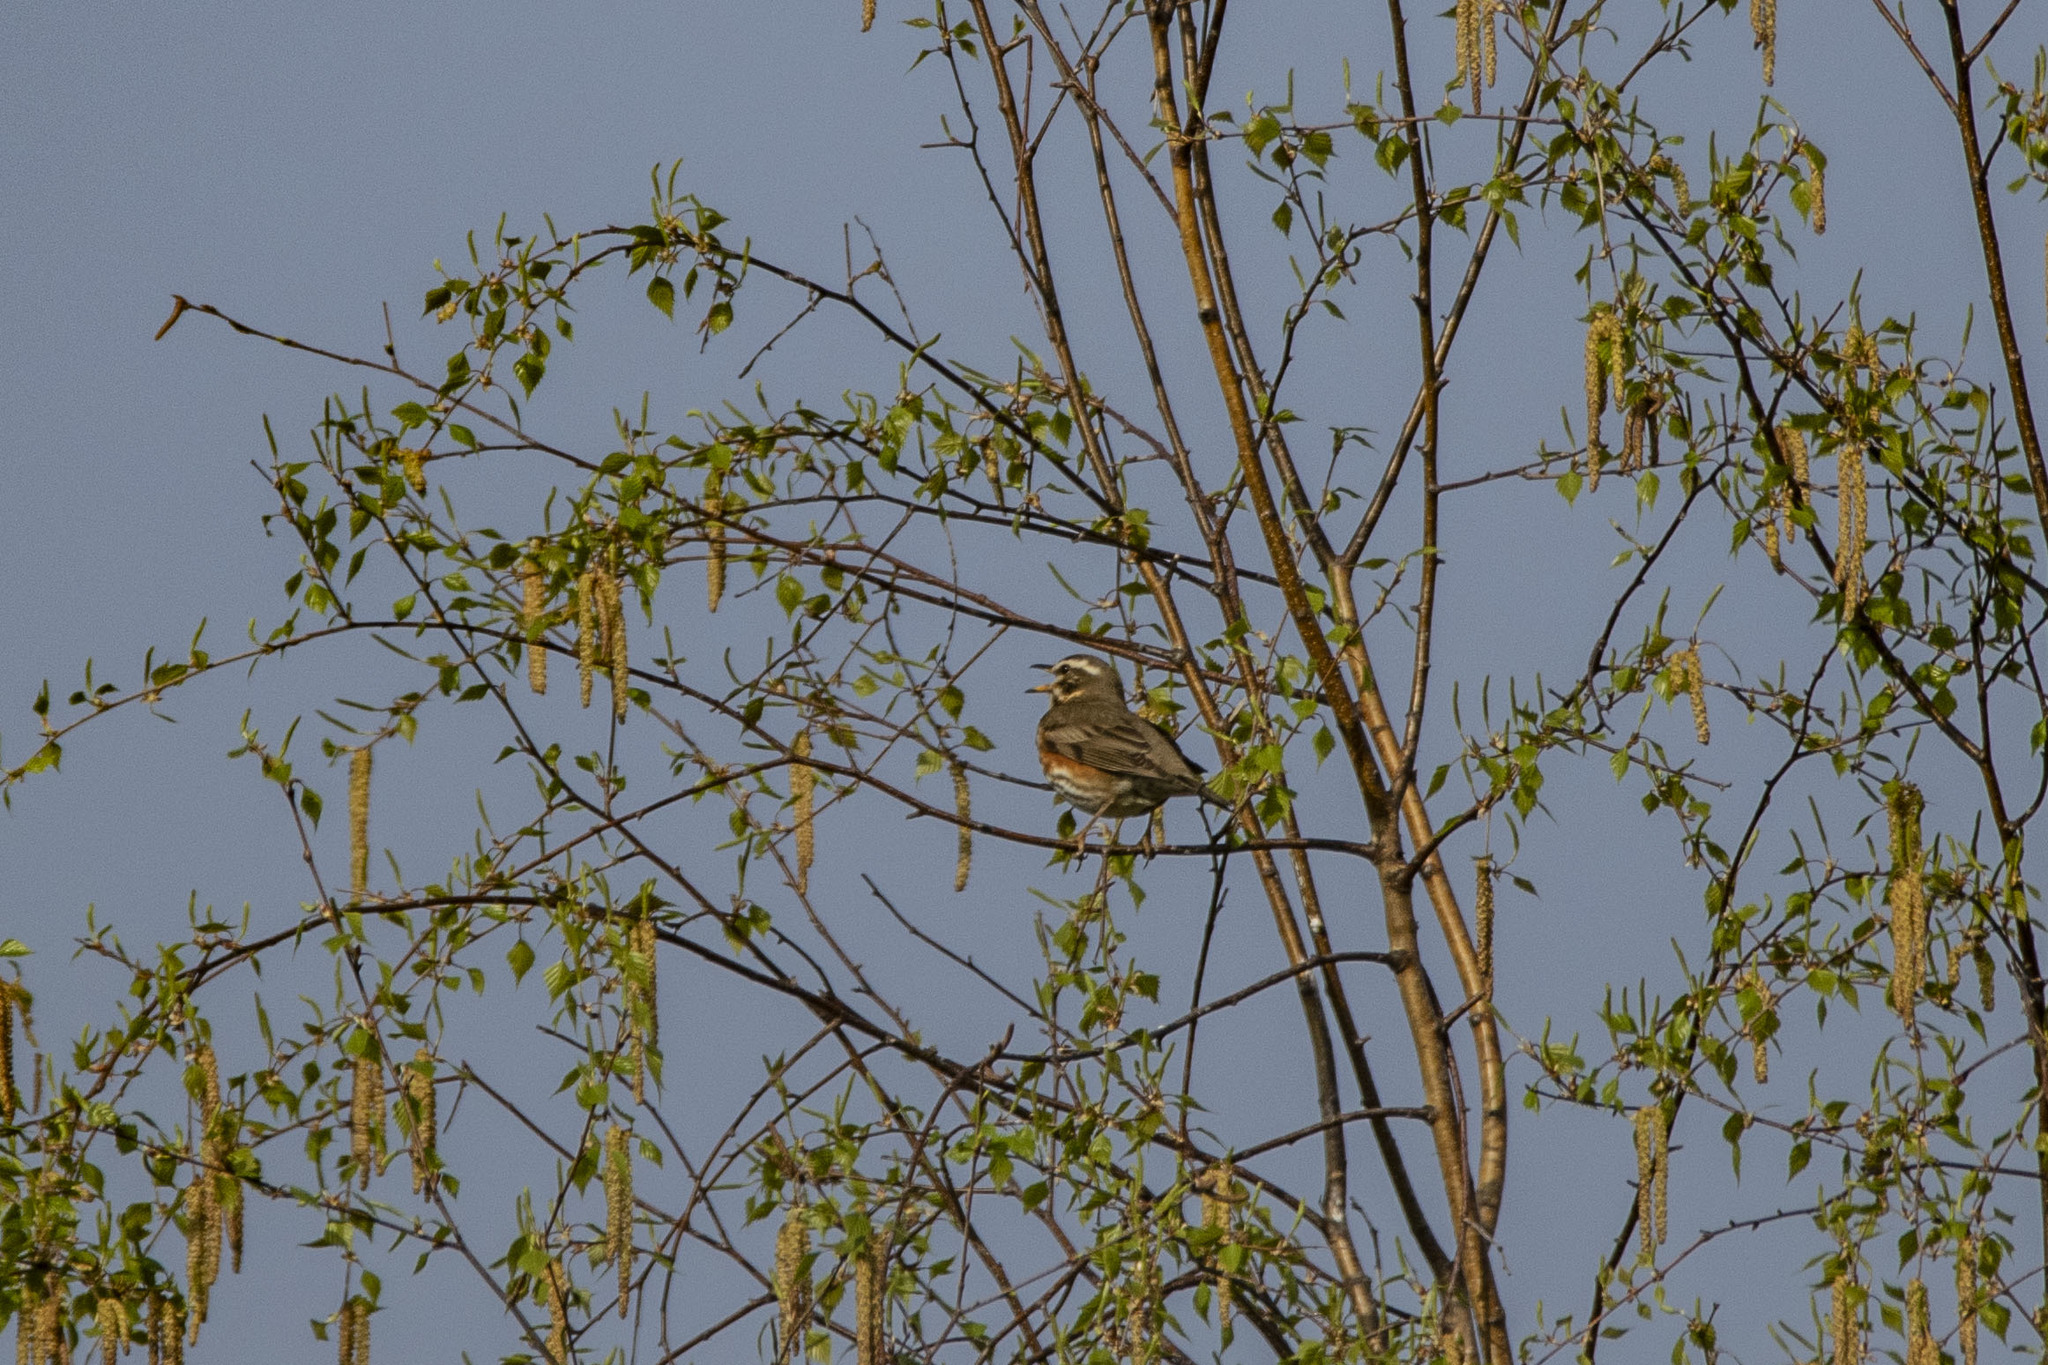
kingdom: Animalia
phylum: Chordata
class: Aves
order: Passeriformes
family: Turdidae
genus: Turdus
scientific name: Turdus iliacus
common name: Redwing
